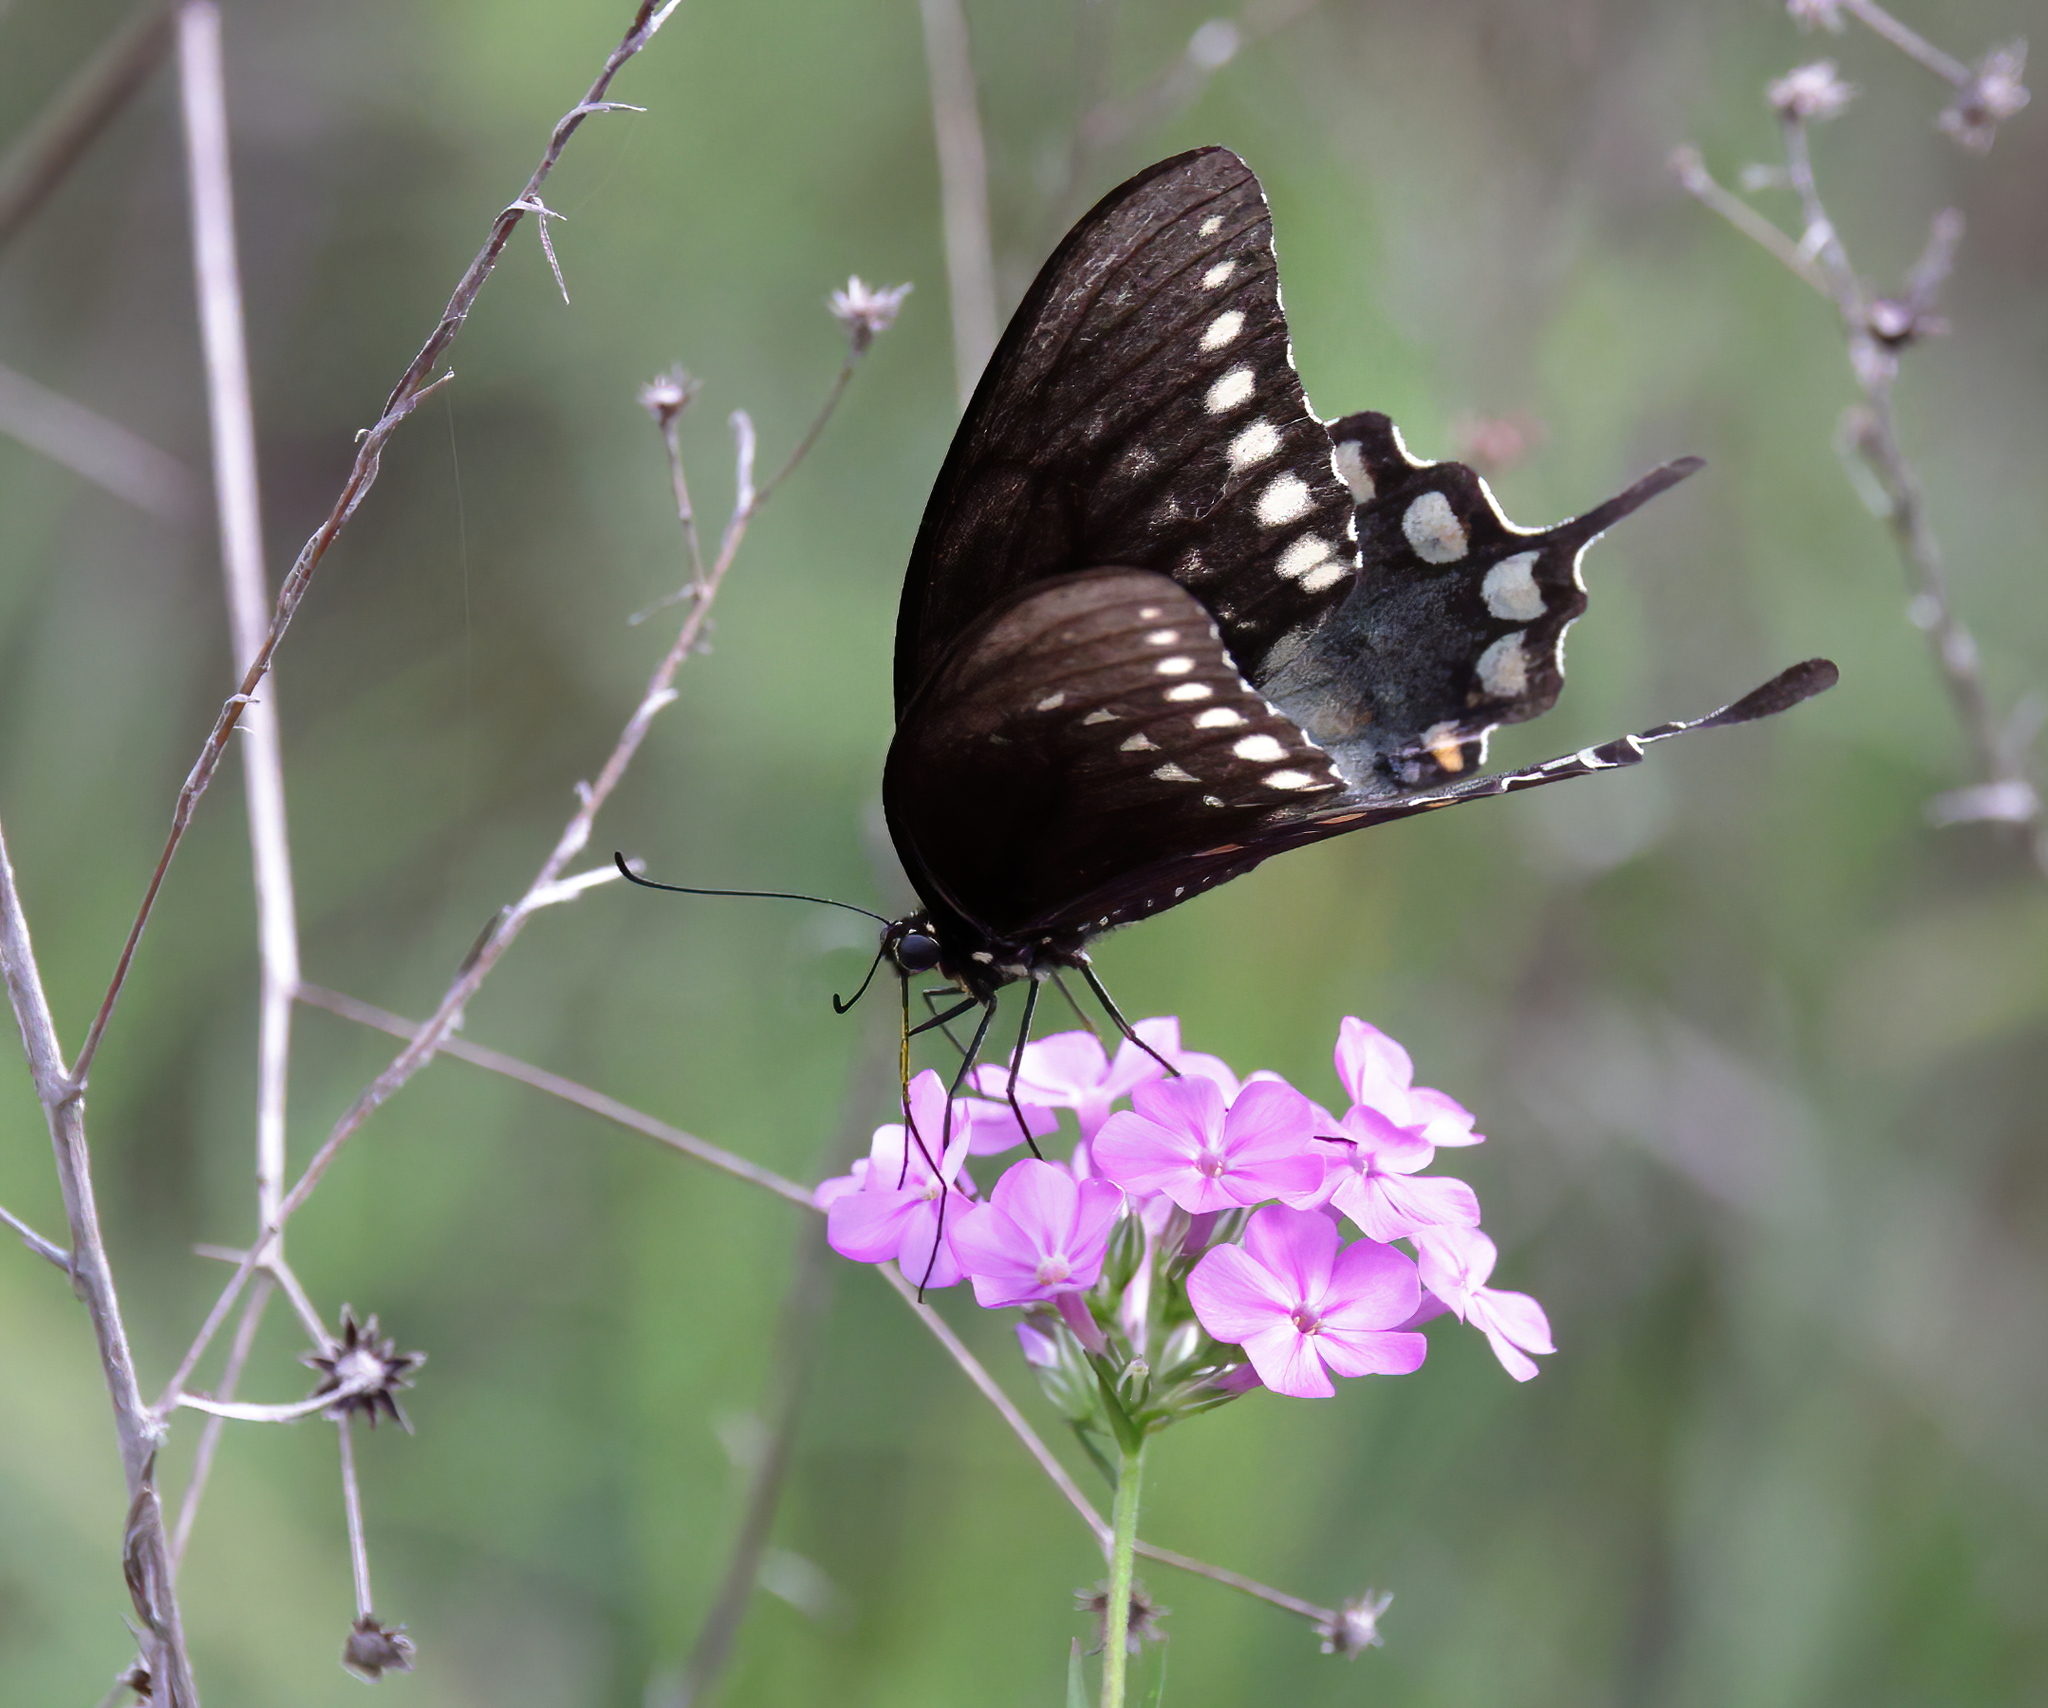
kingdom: Animalia
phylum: Arthropoda
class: Insecta
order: Lepidoptera
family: Papilionidae
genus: Papilio
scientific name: Papilio troilus
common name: Spicebush swallowtail
